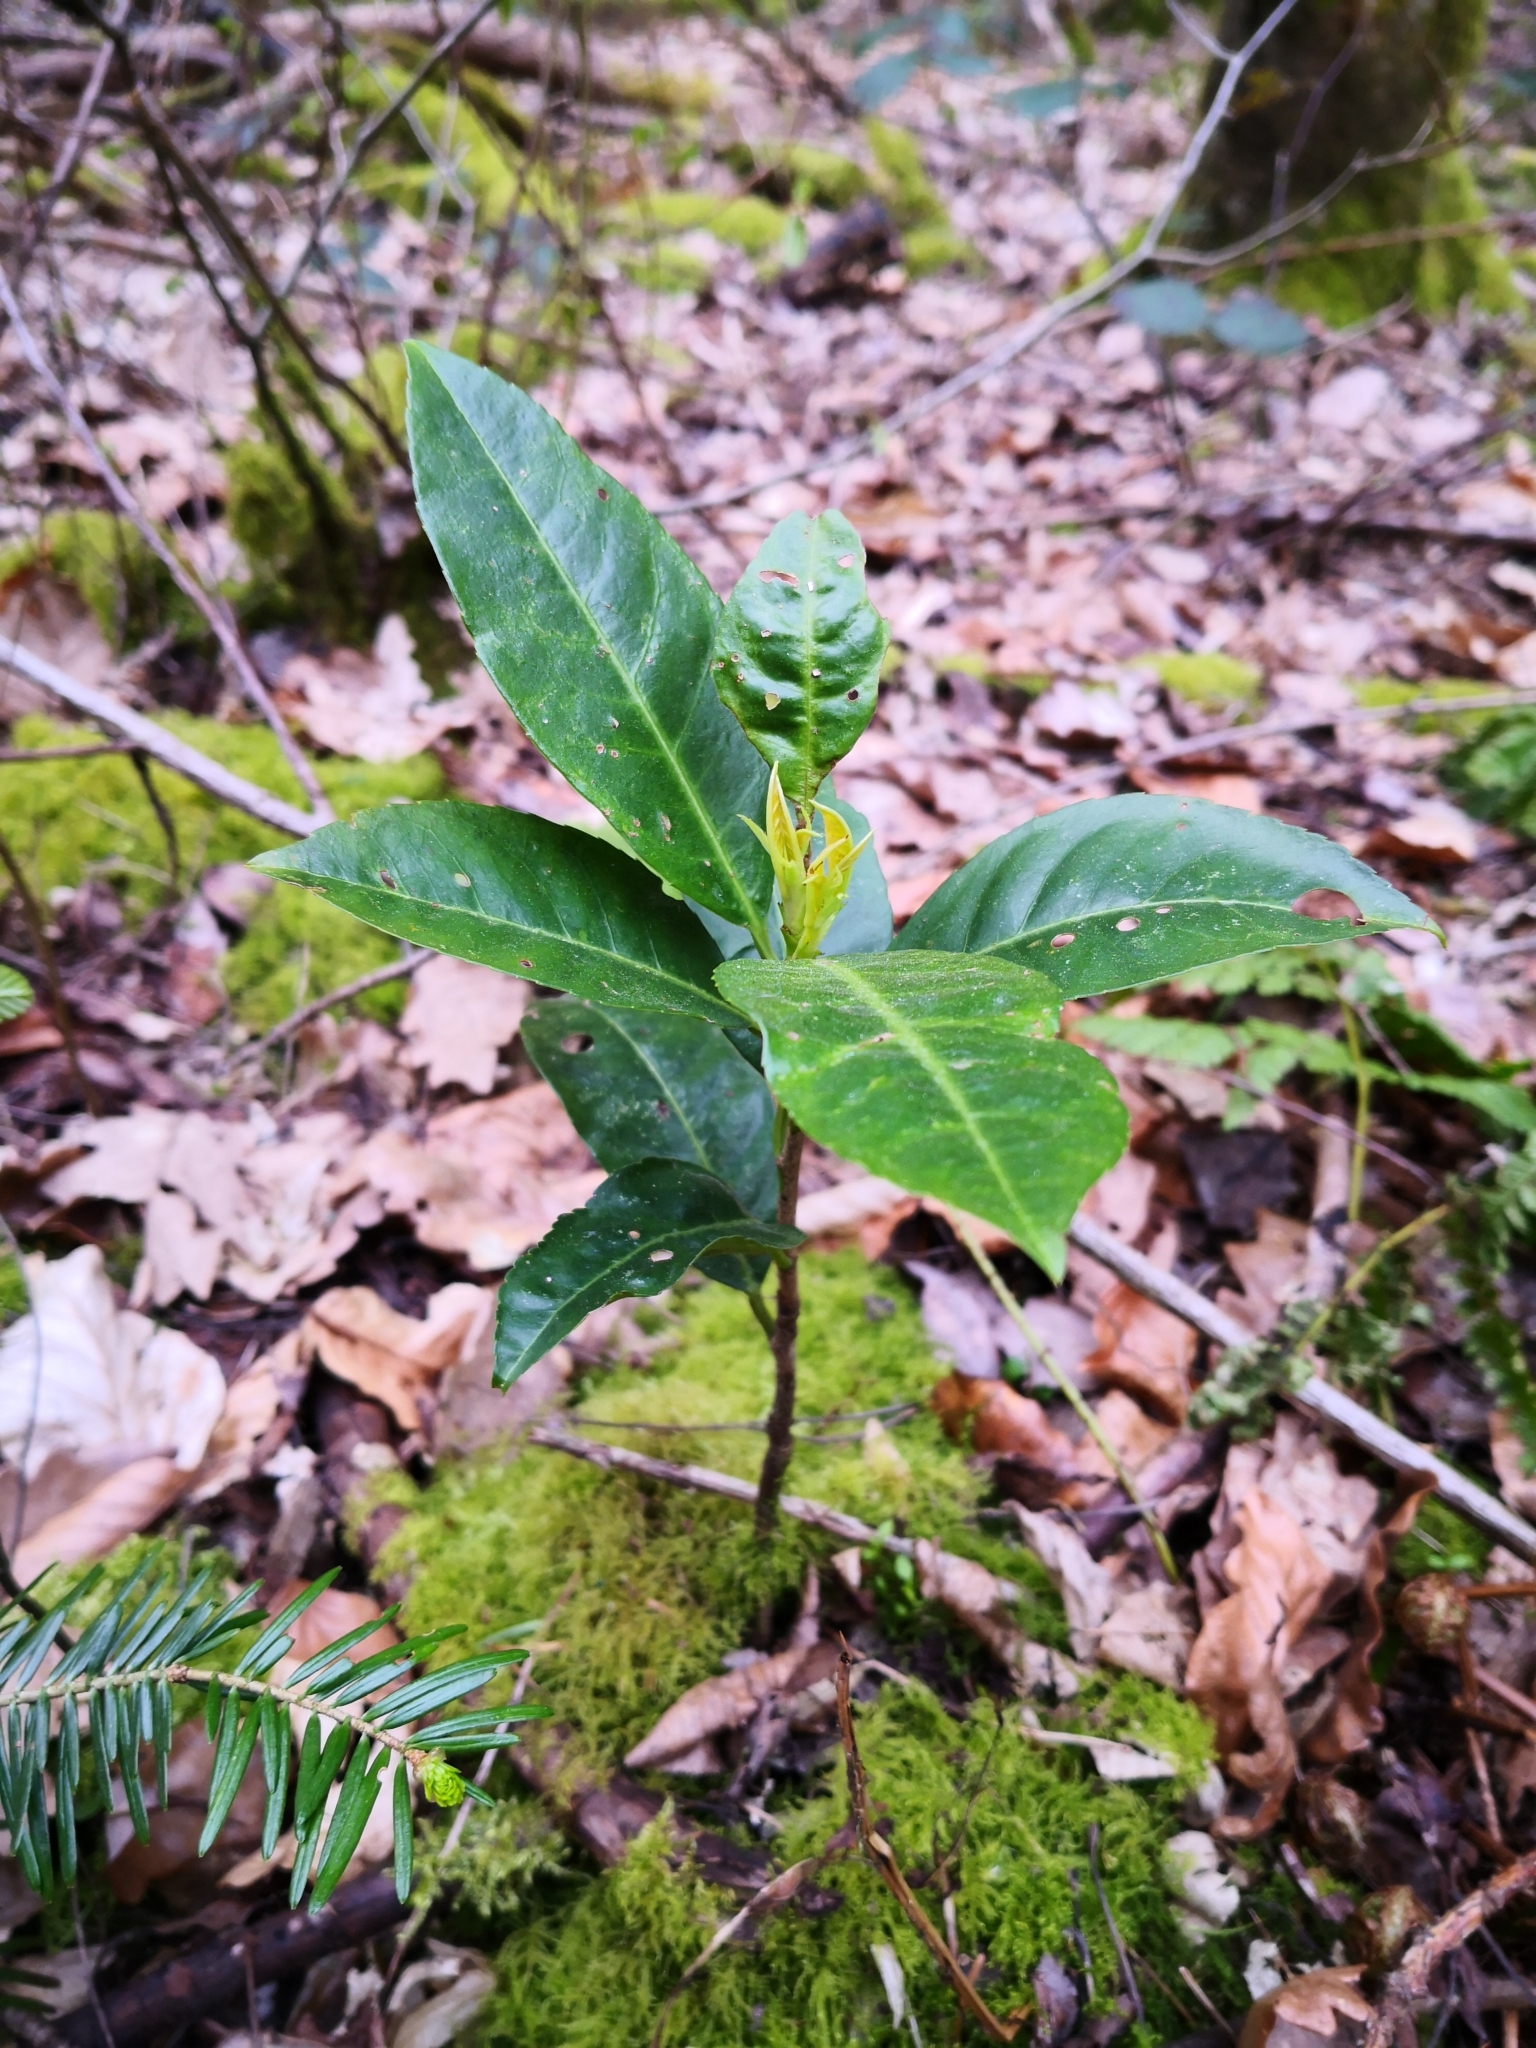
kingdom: Plantae
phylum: Tracheophyta
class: Magnoliopsida
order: Rosales
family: Rosaceae
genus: Prunus
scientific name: Prunus laurocerasus
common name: Cherry laurel
